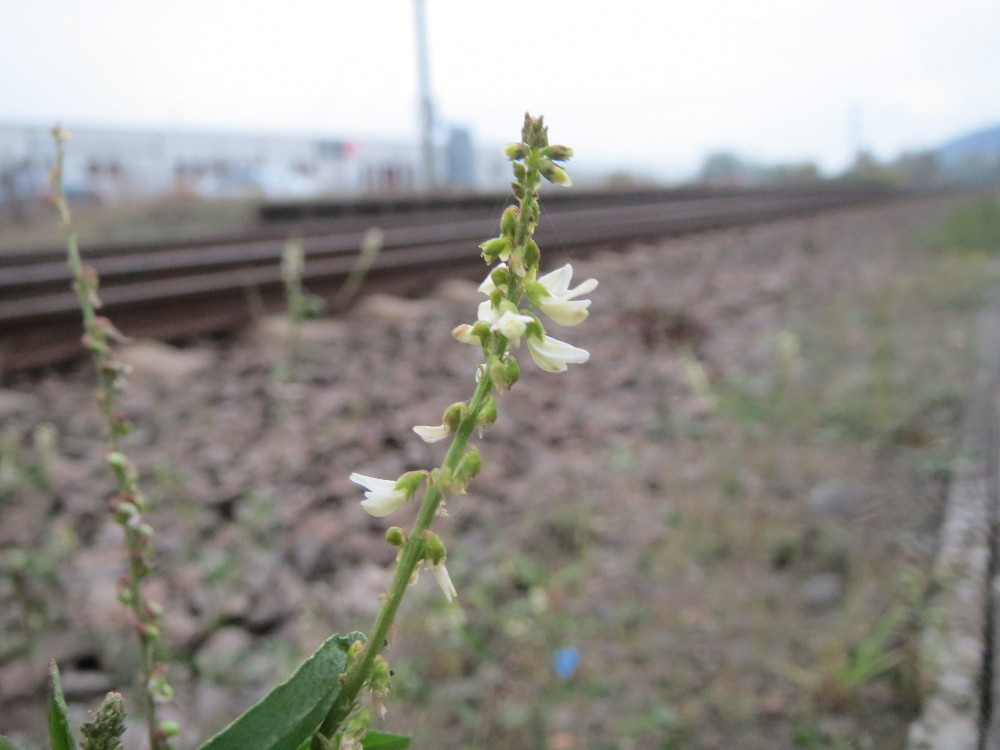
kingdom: Plantae
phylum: Tracheophyta
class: Magnoliopsida
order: Fabales
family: Fabaceae
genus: Melilotus
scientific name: Melilotus albus
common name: White melilot
